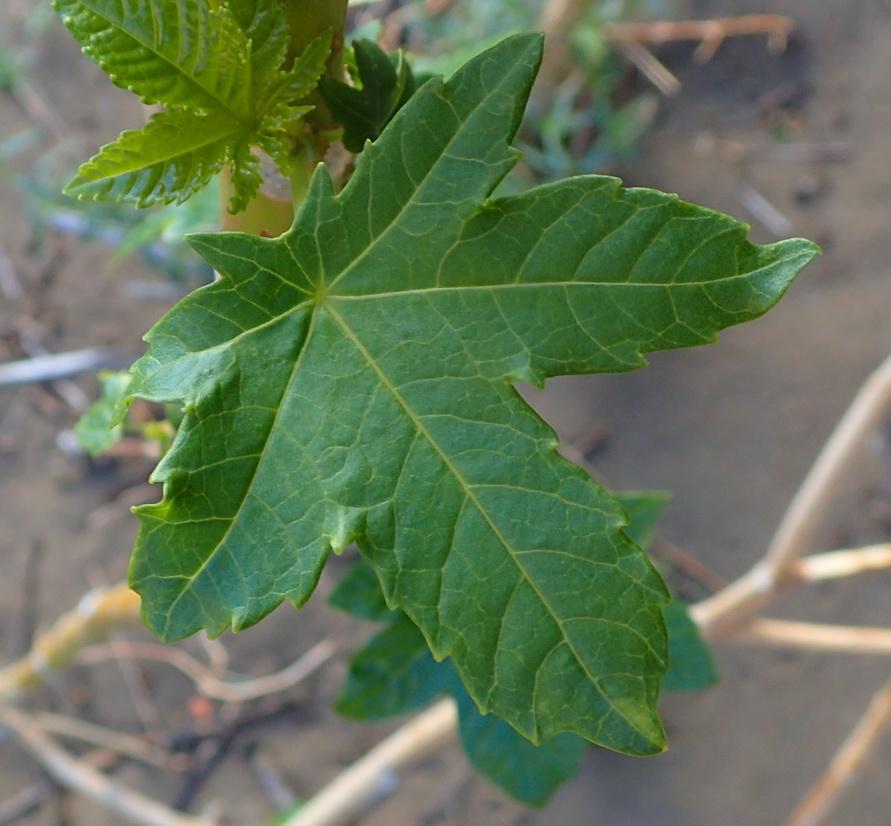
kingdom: Plantae
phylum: Tracheophyta
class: Magnoliopsida
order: Malpighiales
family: Euphorbiaceae
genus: Ricinus
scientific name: Ricinus communis
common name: Castor-oil-plant
